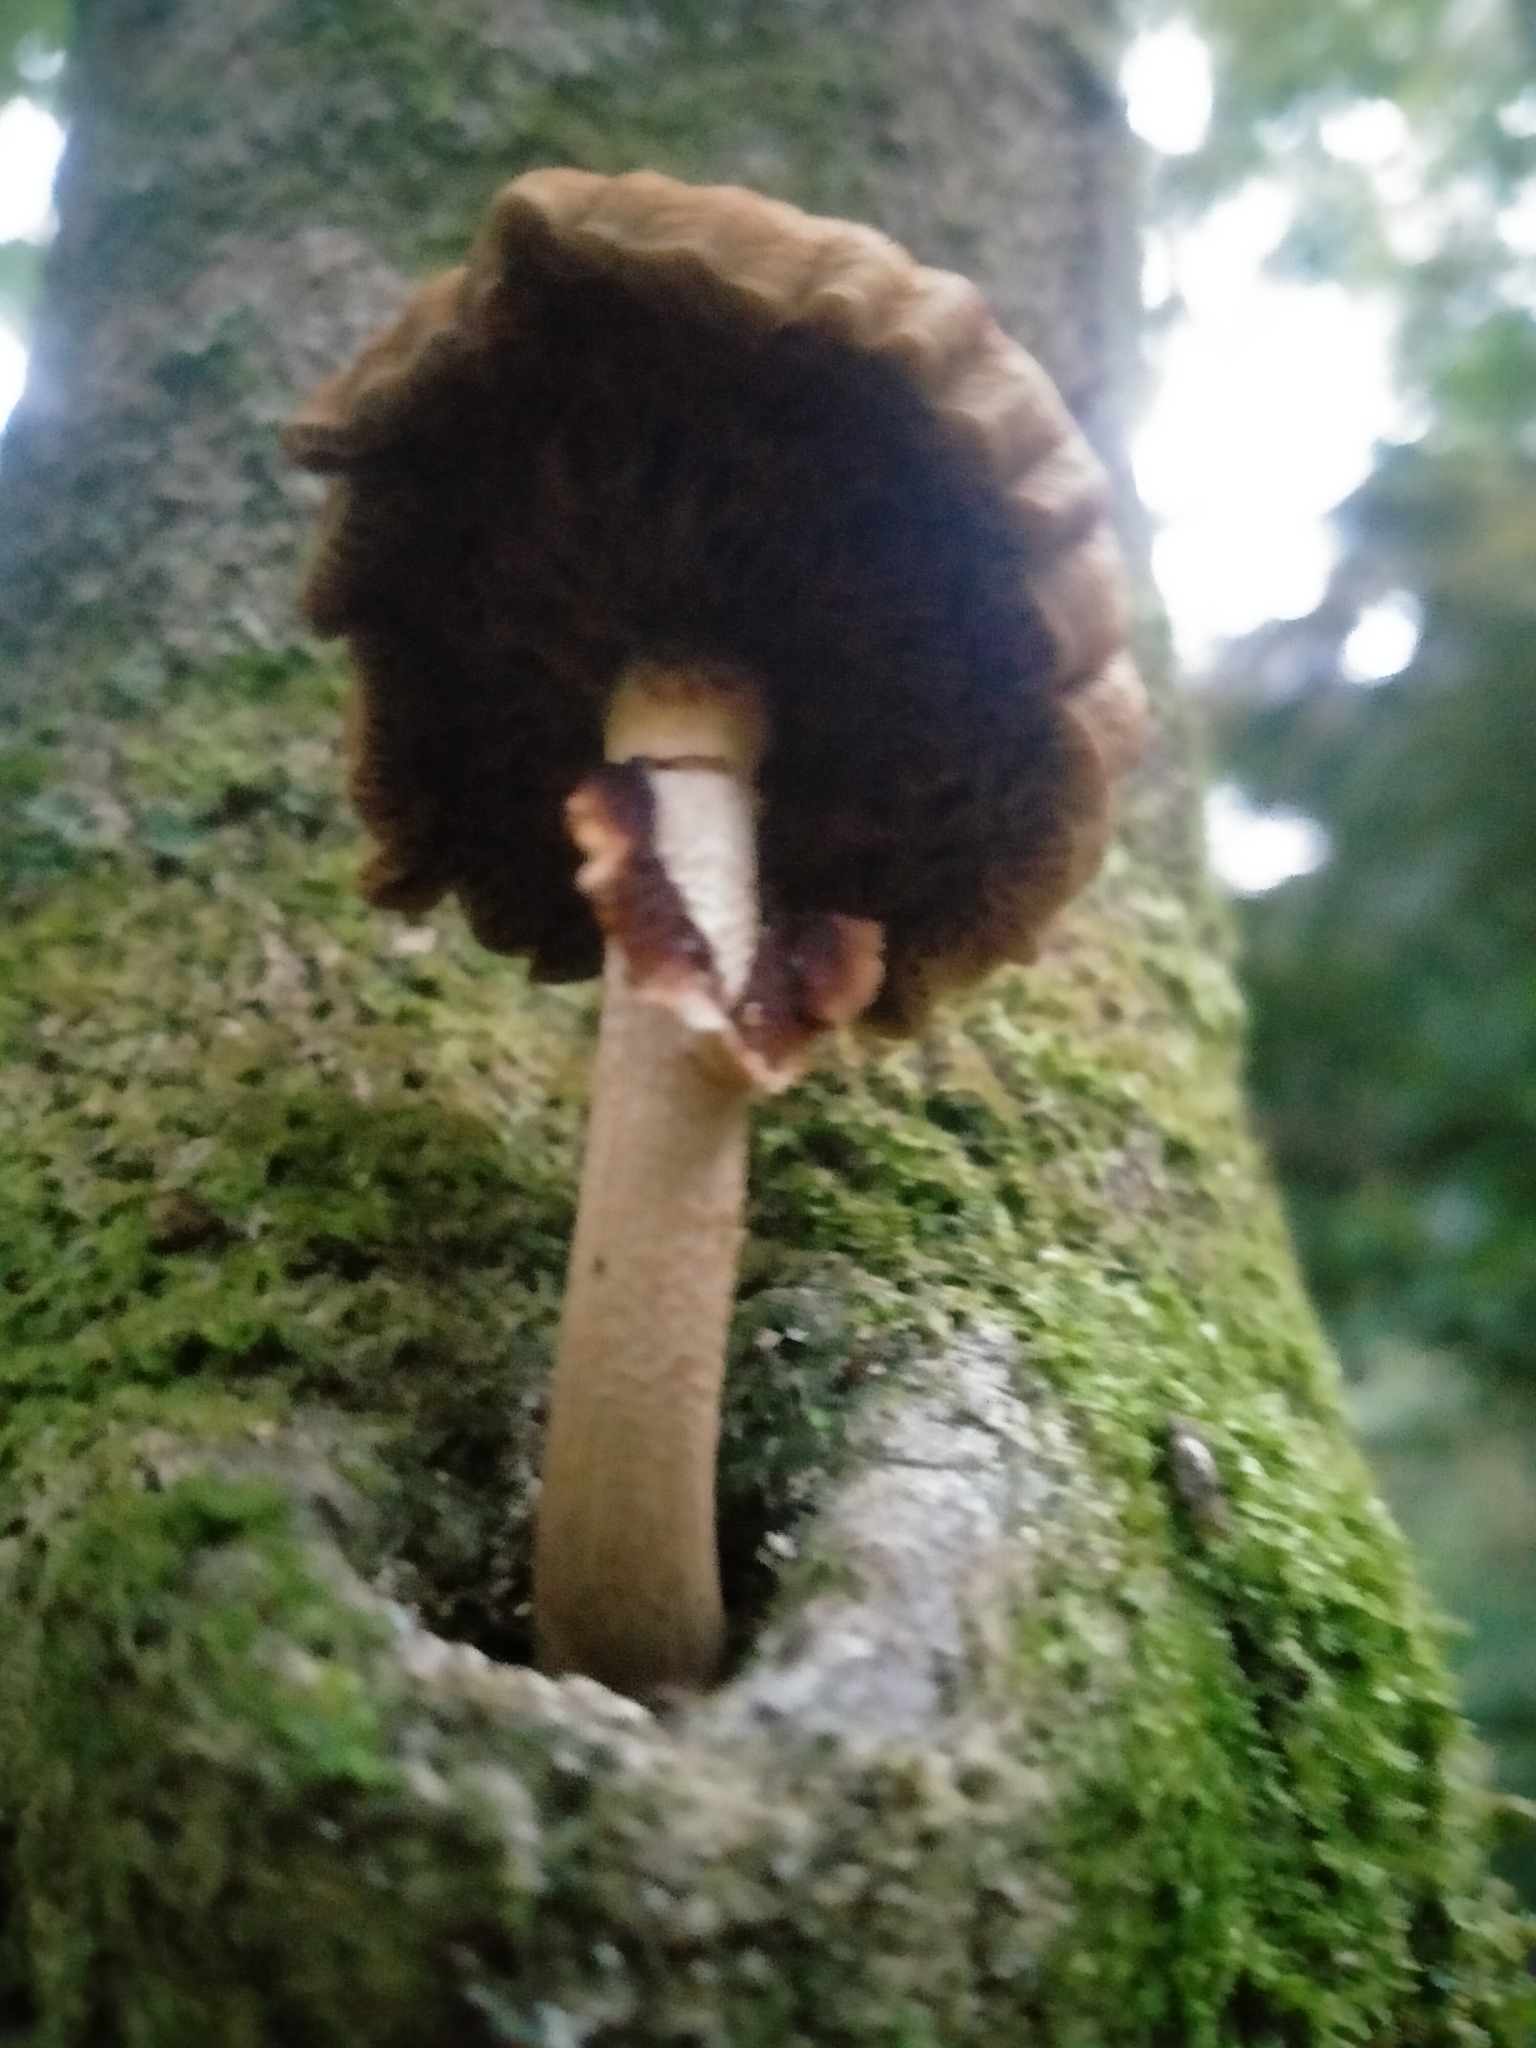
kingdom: Fungi
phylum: Basidiomycota
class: Agaricomycetes
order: Agaricales
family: Tubariaceae
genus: Cyclocybe
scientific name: Cyclocybe parasitica
